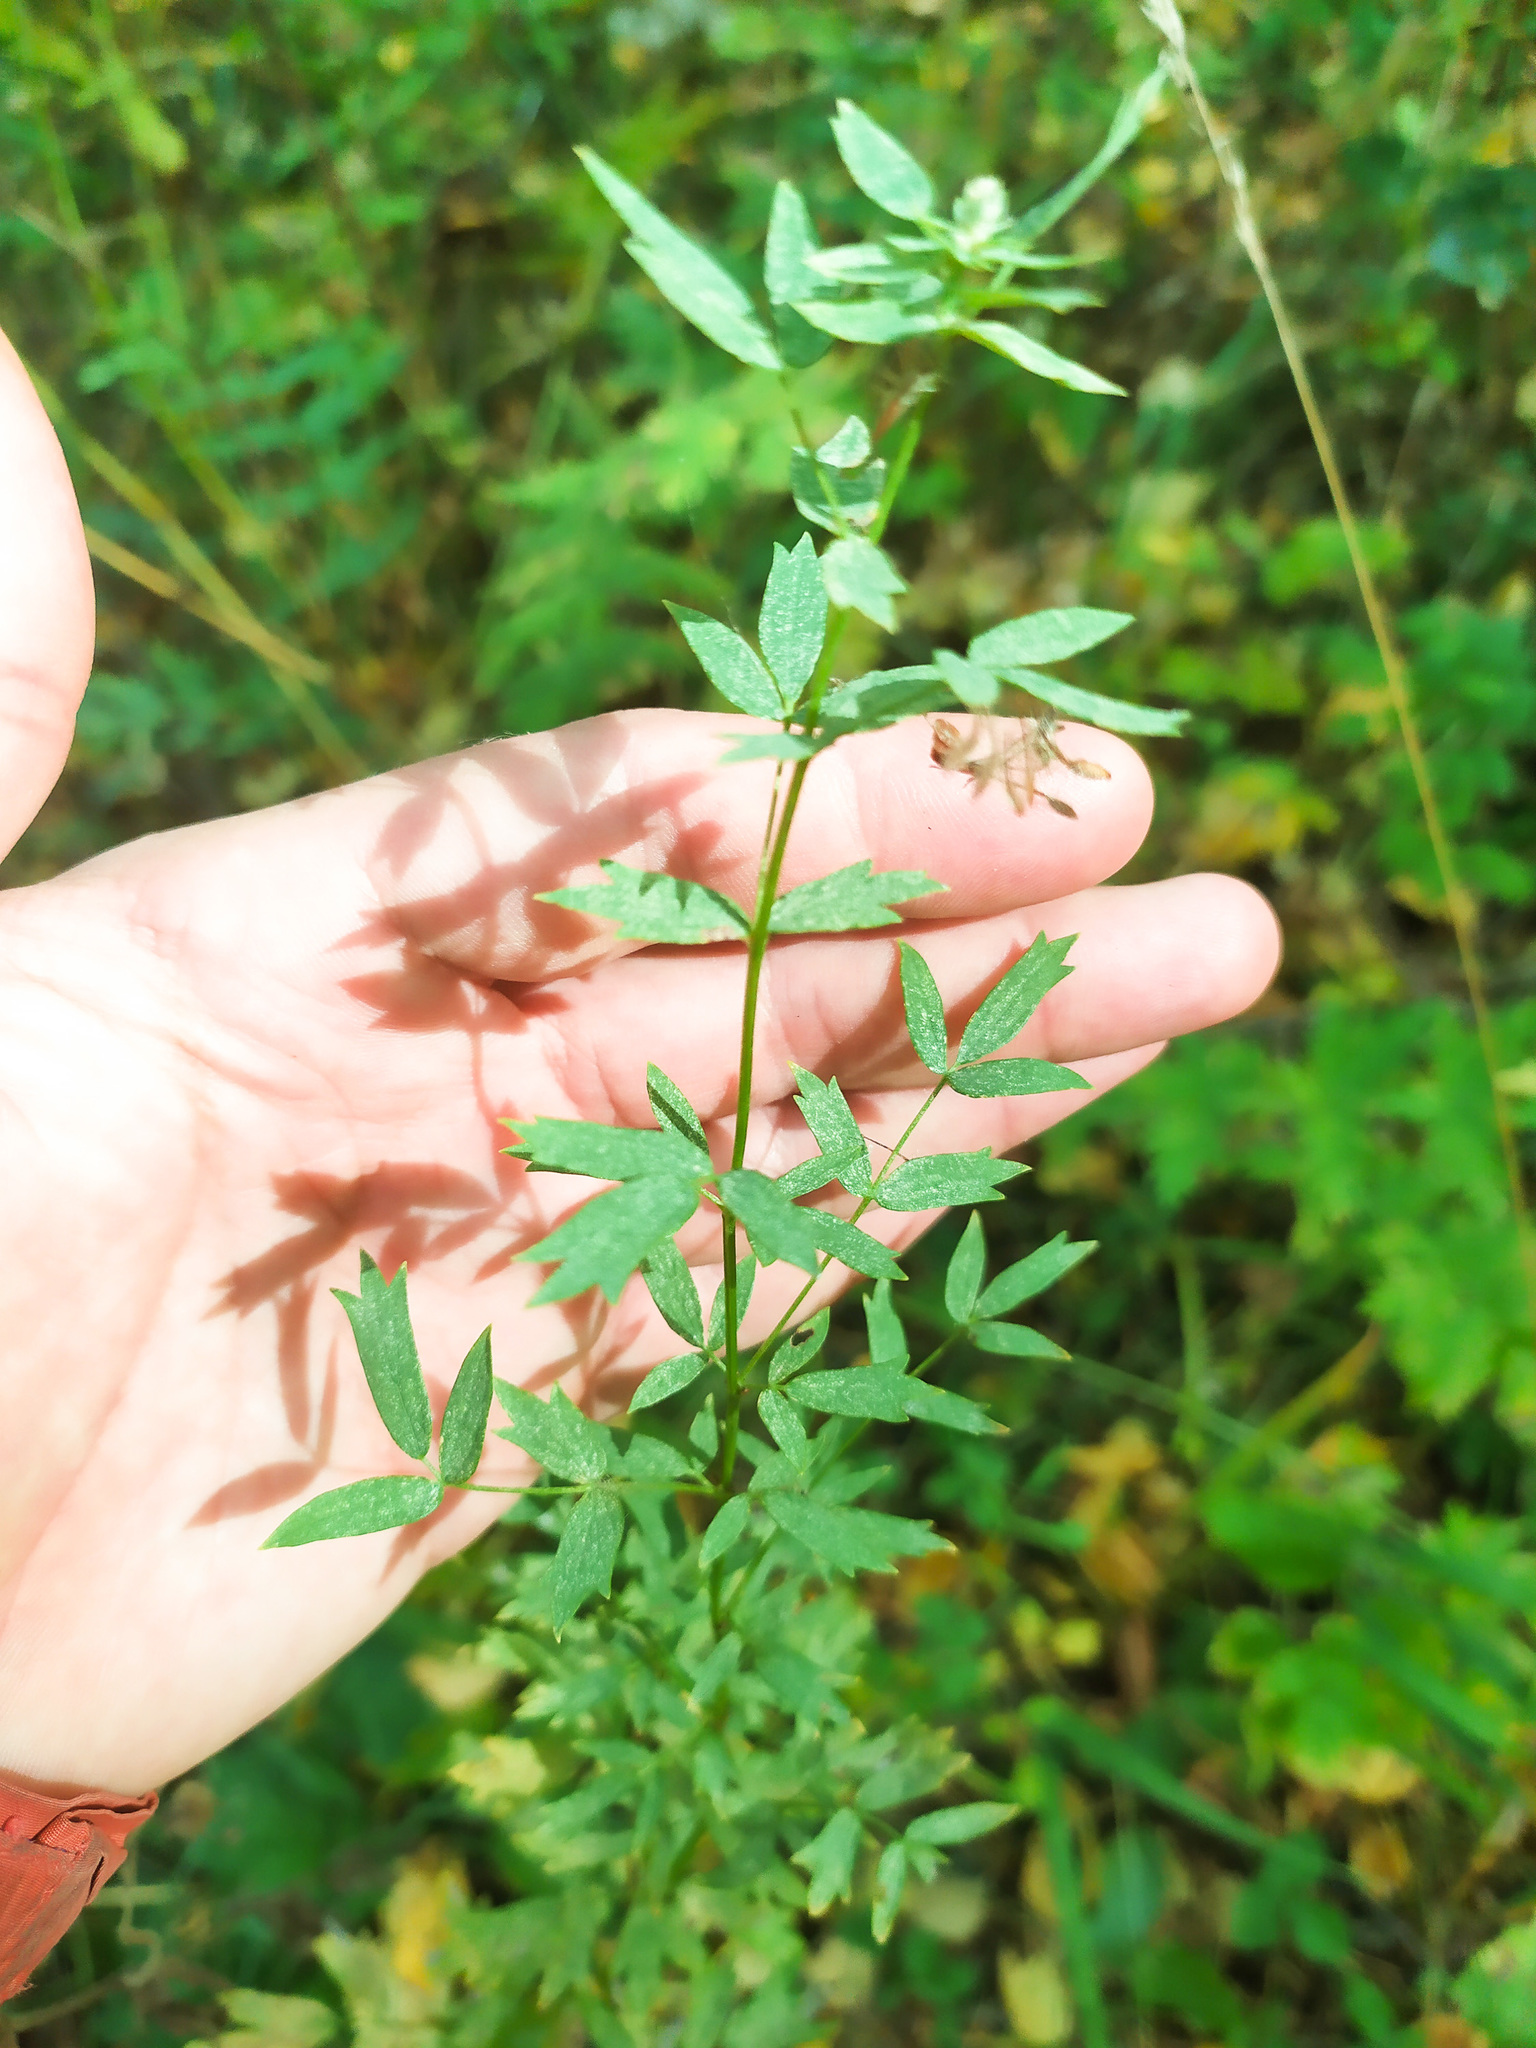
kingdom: Plantae
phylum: Tracheophyta
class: Magnoliopsida
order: Ranunculales
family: Ranunculaceae
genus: Thalictrum
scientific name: Thalictrum simplex
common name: Small meadow-rue
